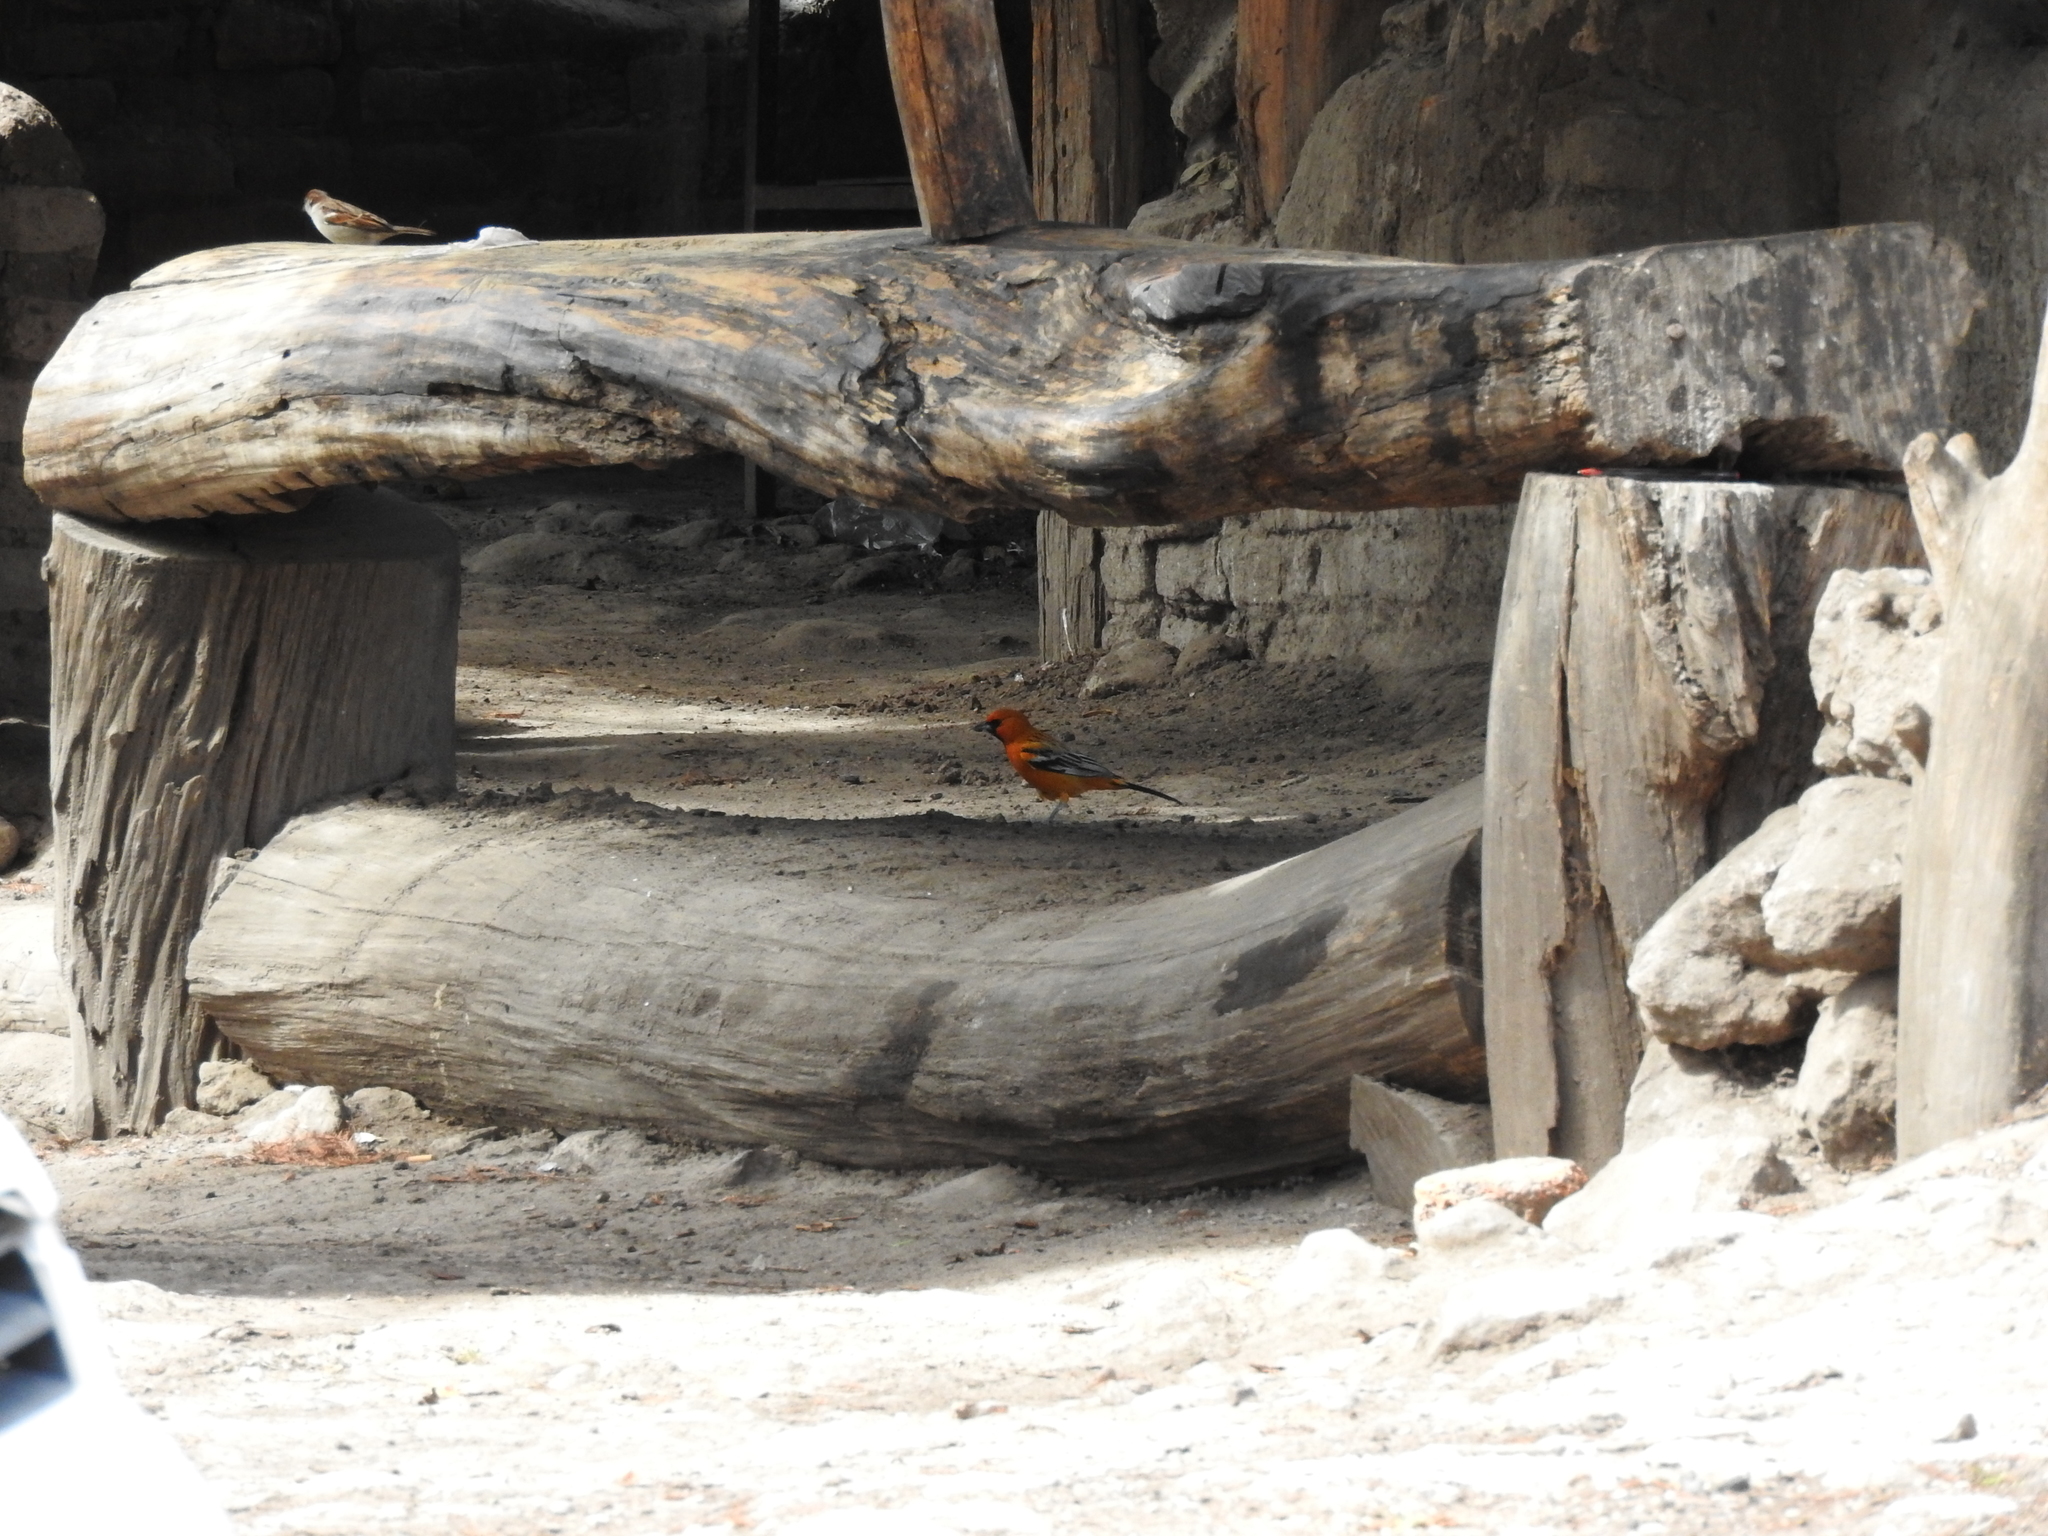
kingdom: Animalia
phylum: Chordata
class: Aves
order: Passeriformes
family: Passeridae
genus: Passer
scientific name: Passer domesticus
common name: House sparrow
